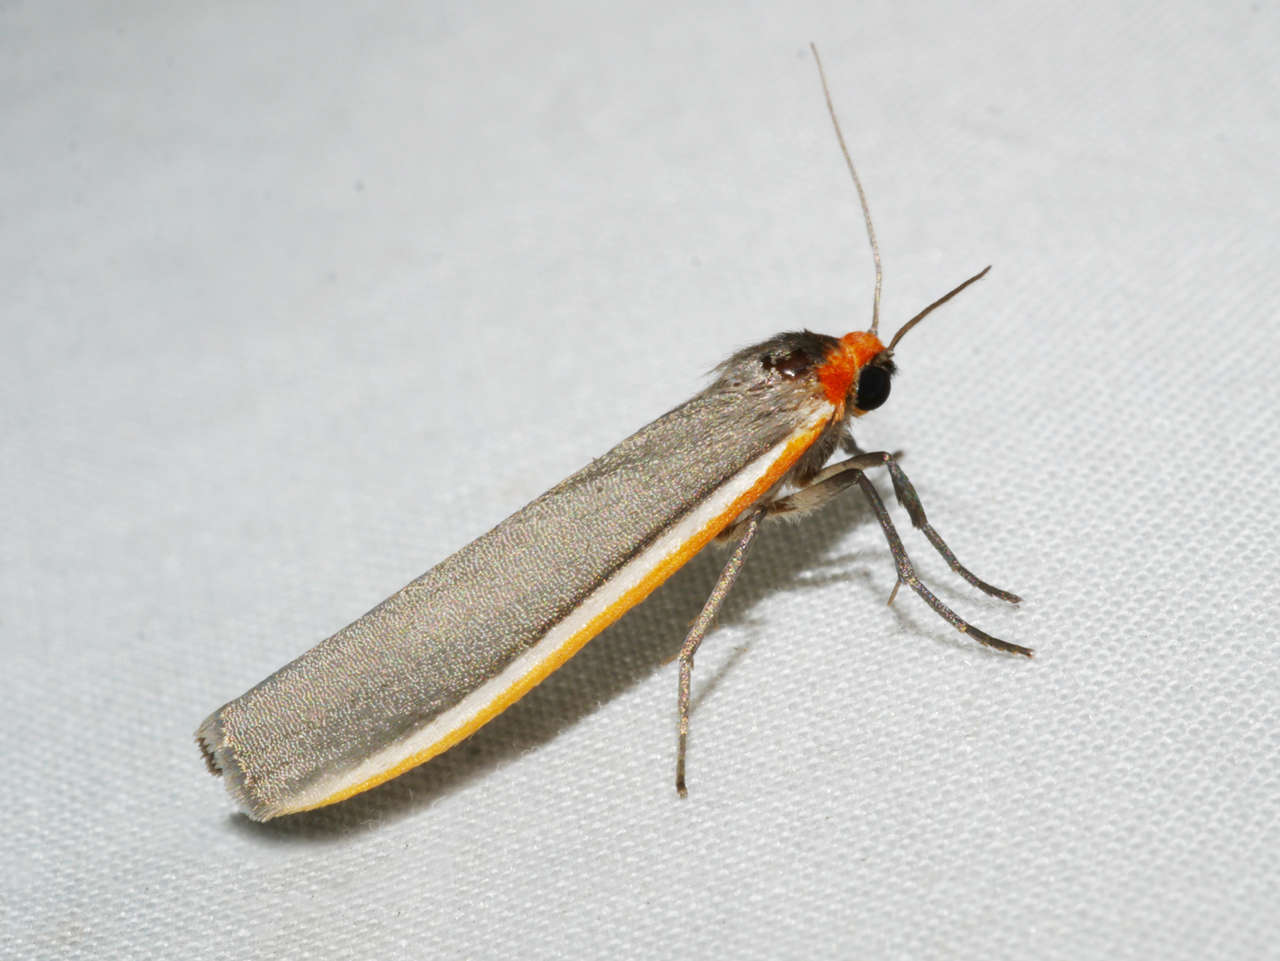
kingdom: Animalia
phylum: Arthropoda
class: Insecta
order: Lepidoptera
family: Erebidae
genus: Palaeosia
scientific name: Palaeosia bicosta
